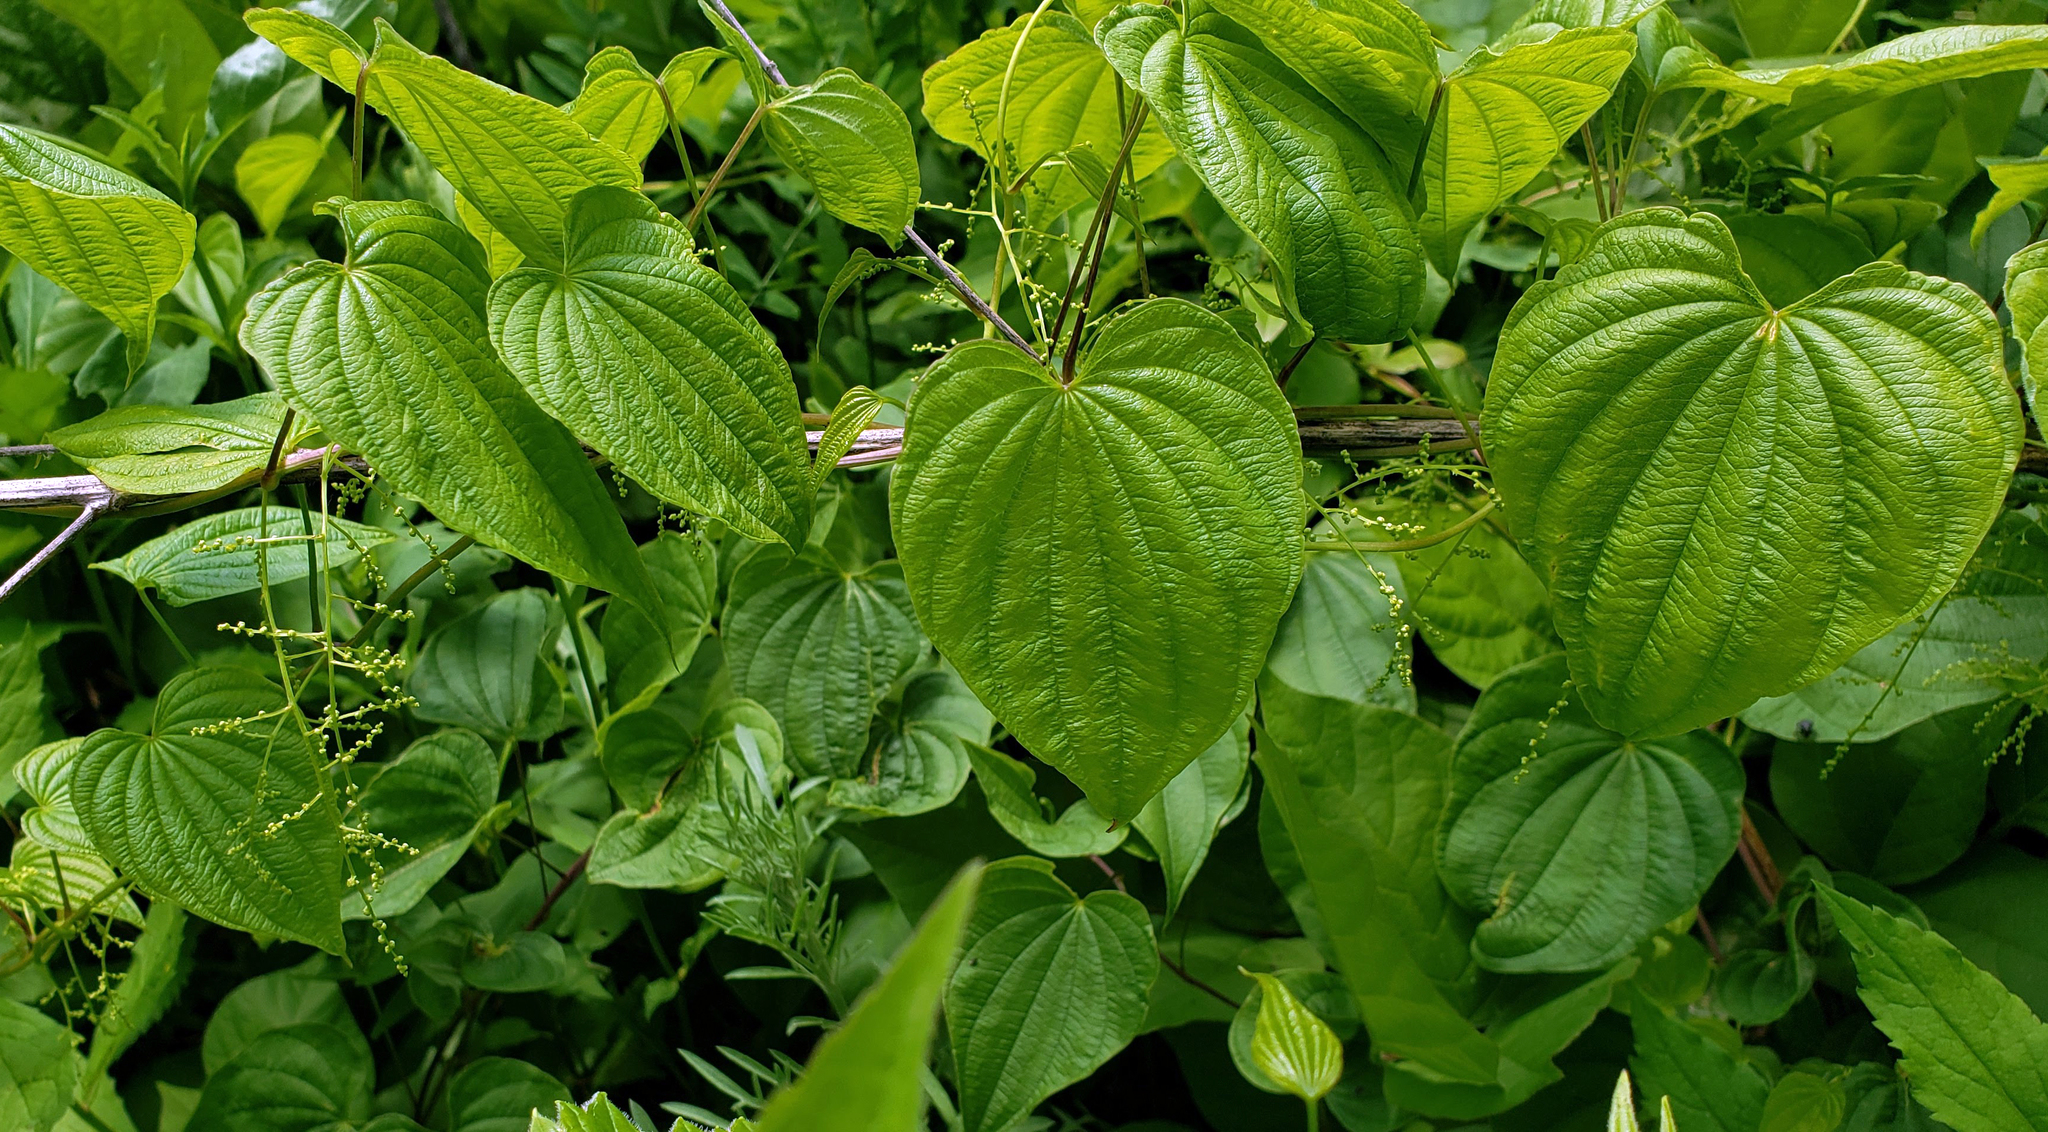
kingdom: Plantae
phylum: Tracheophyta
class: Liliopsida
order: Dioscoreales
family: Dioscoreaceae
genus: Dioscorea
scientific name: Dioscorea villosa
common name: Wild yam
